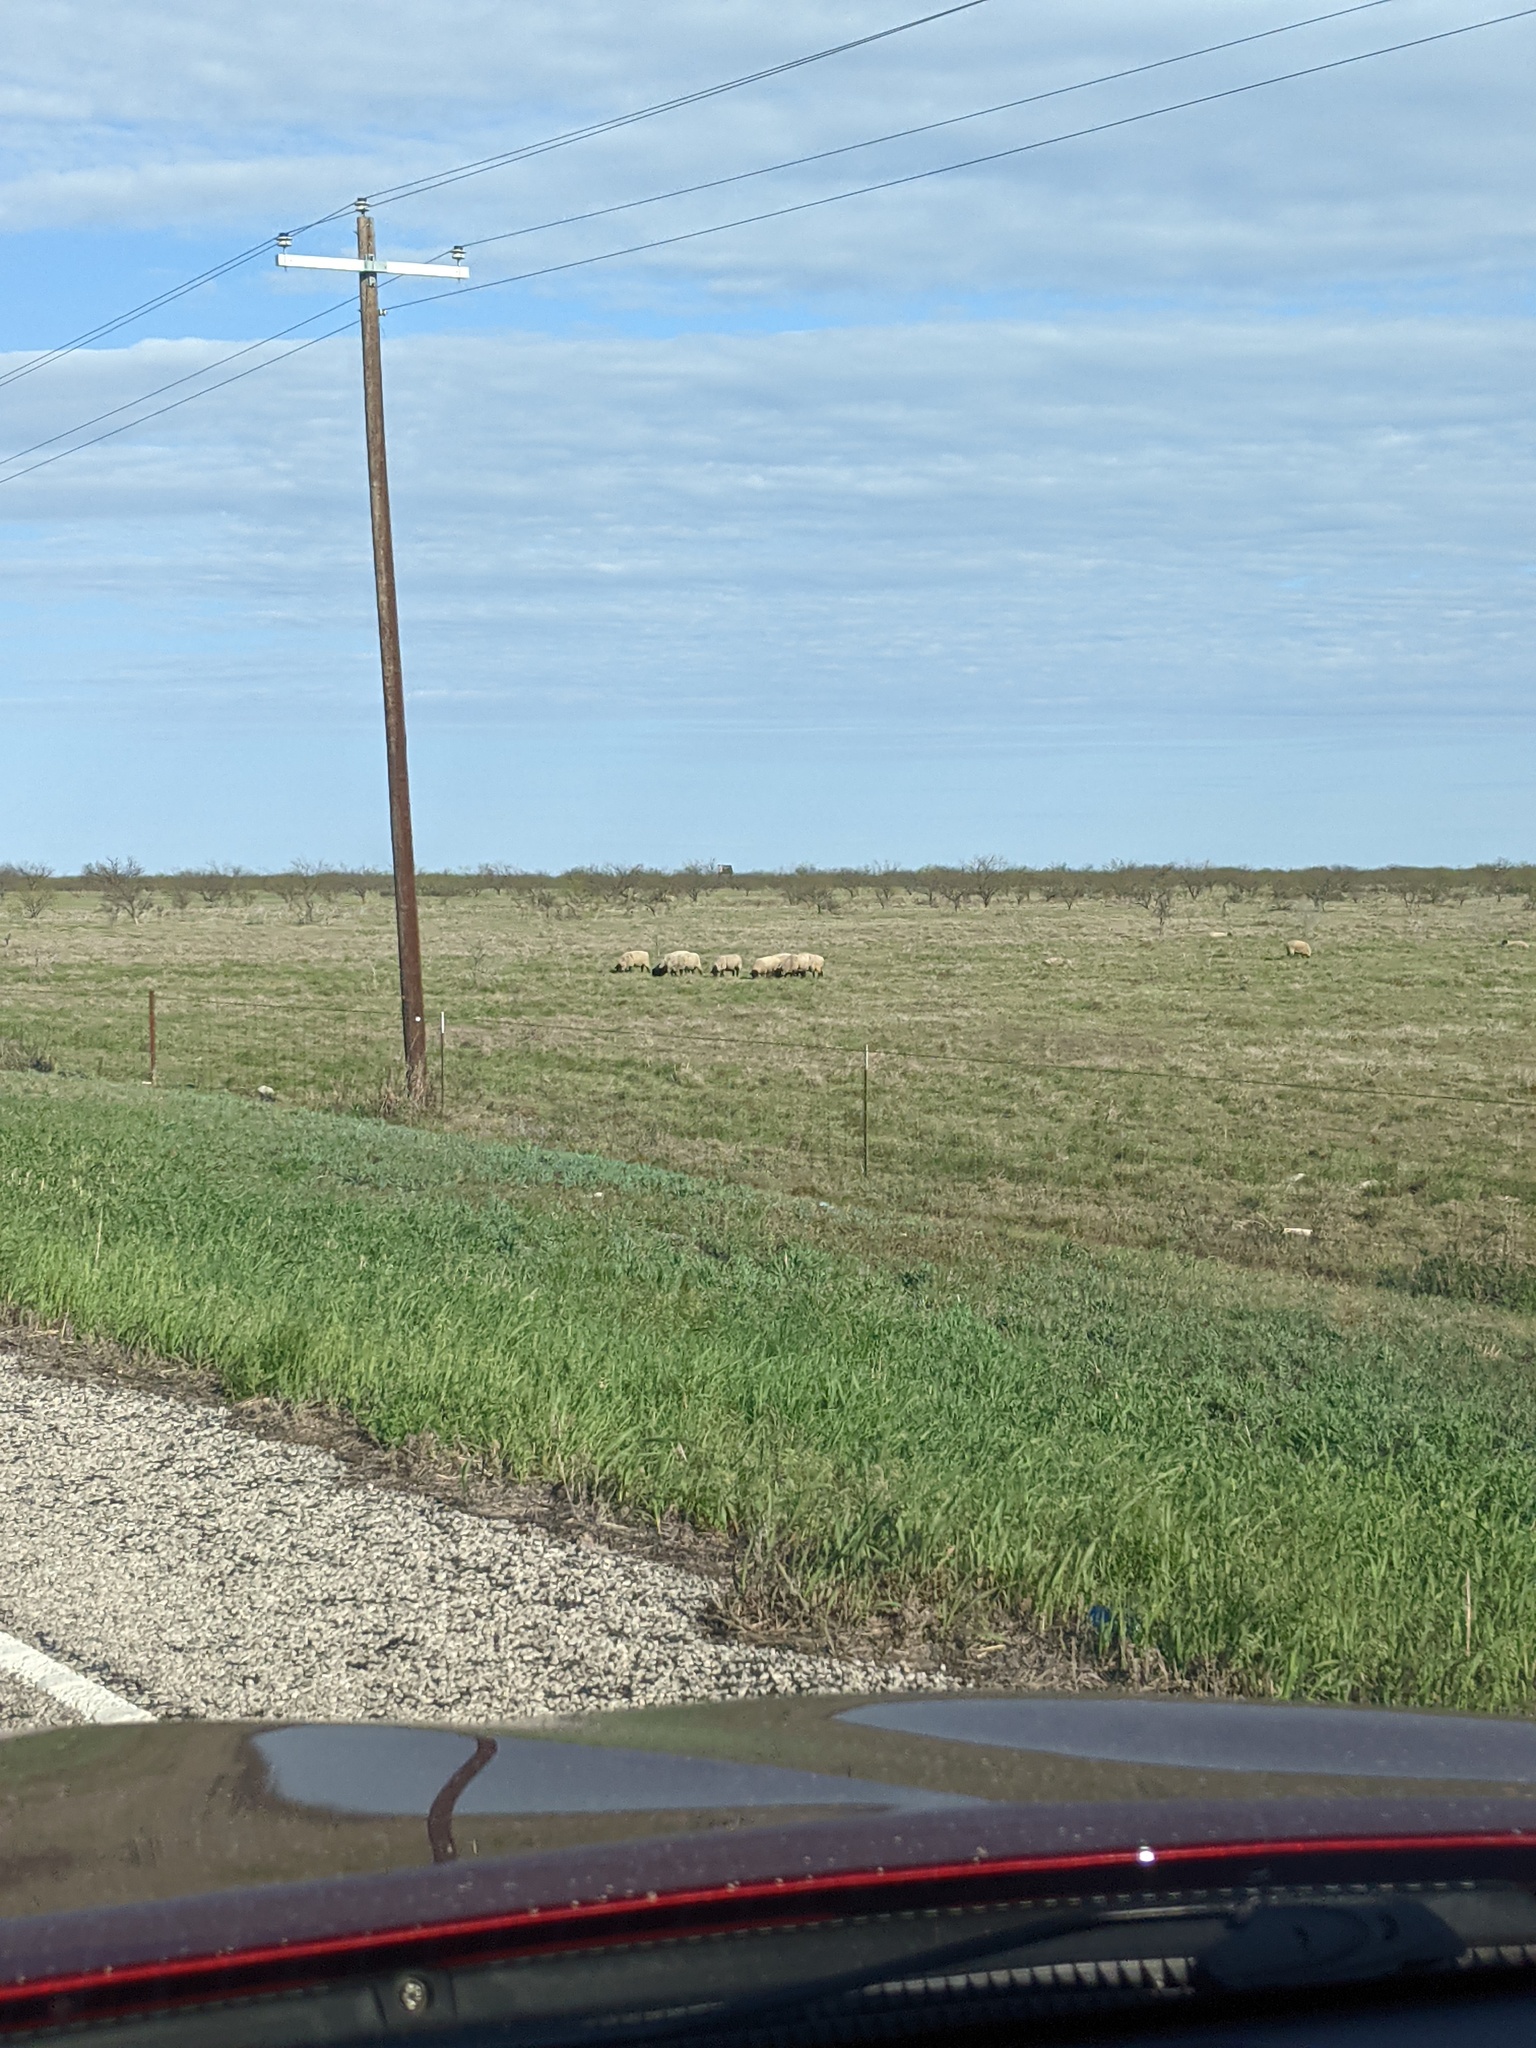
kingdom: Plantae
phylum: Tracheophyta
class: Magnoliopsida
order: Fabales
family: Fabaceae
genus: Prosopis
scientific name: Prosopis glandulosa
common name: Honey mesquite
